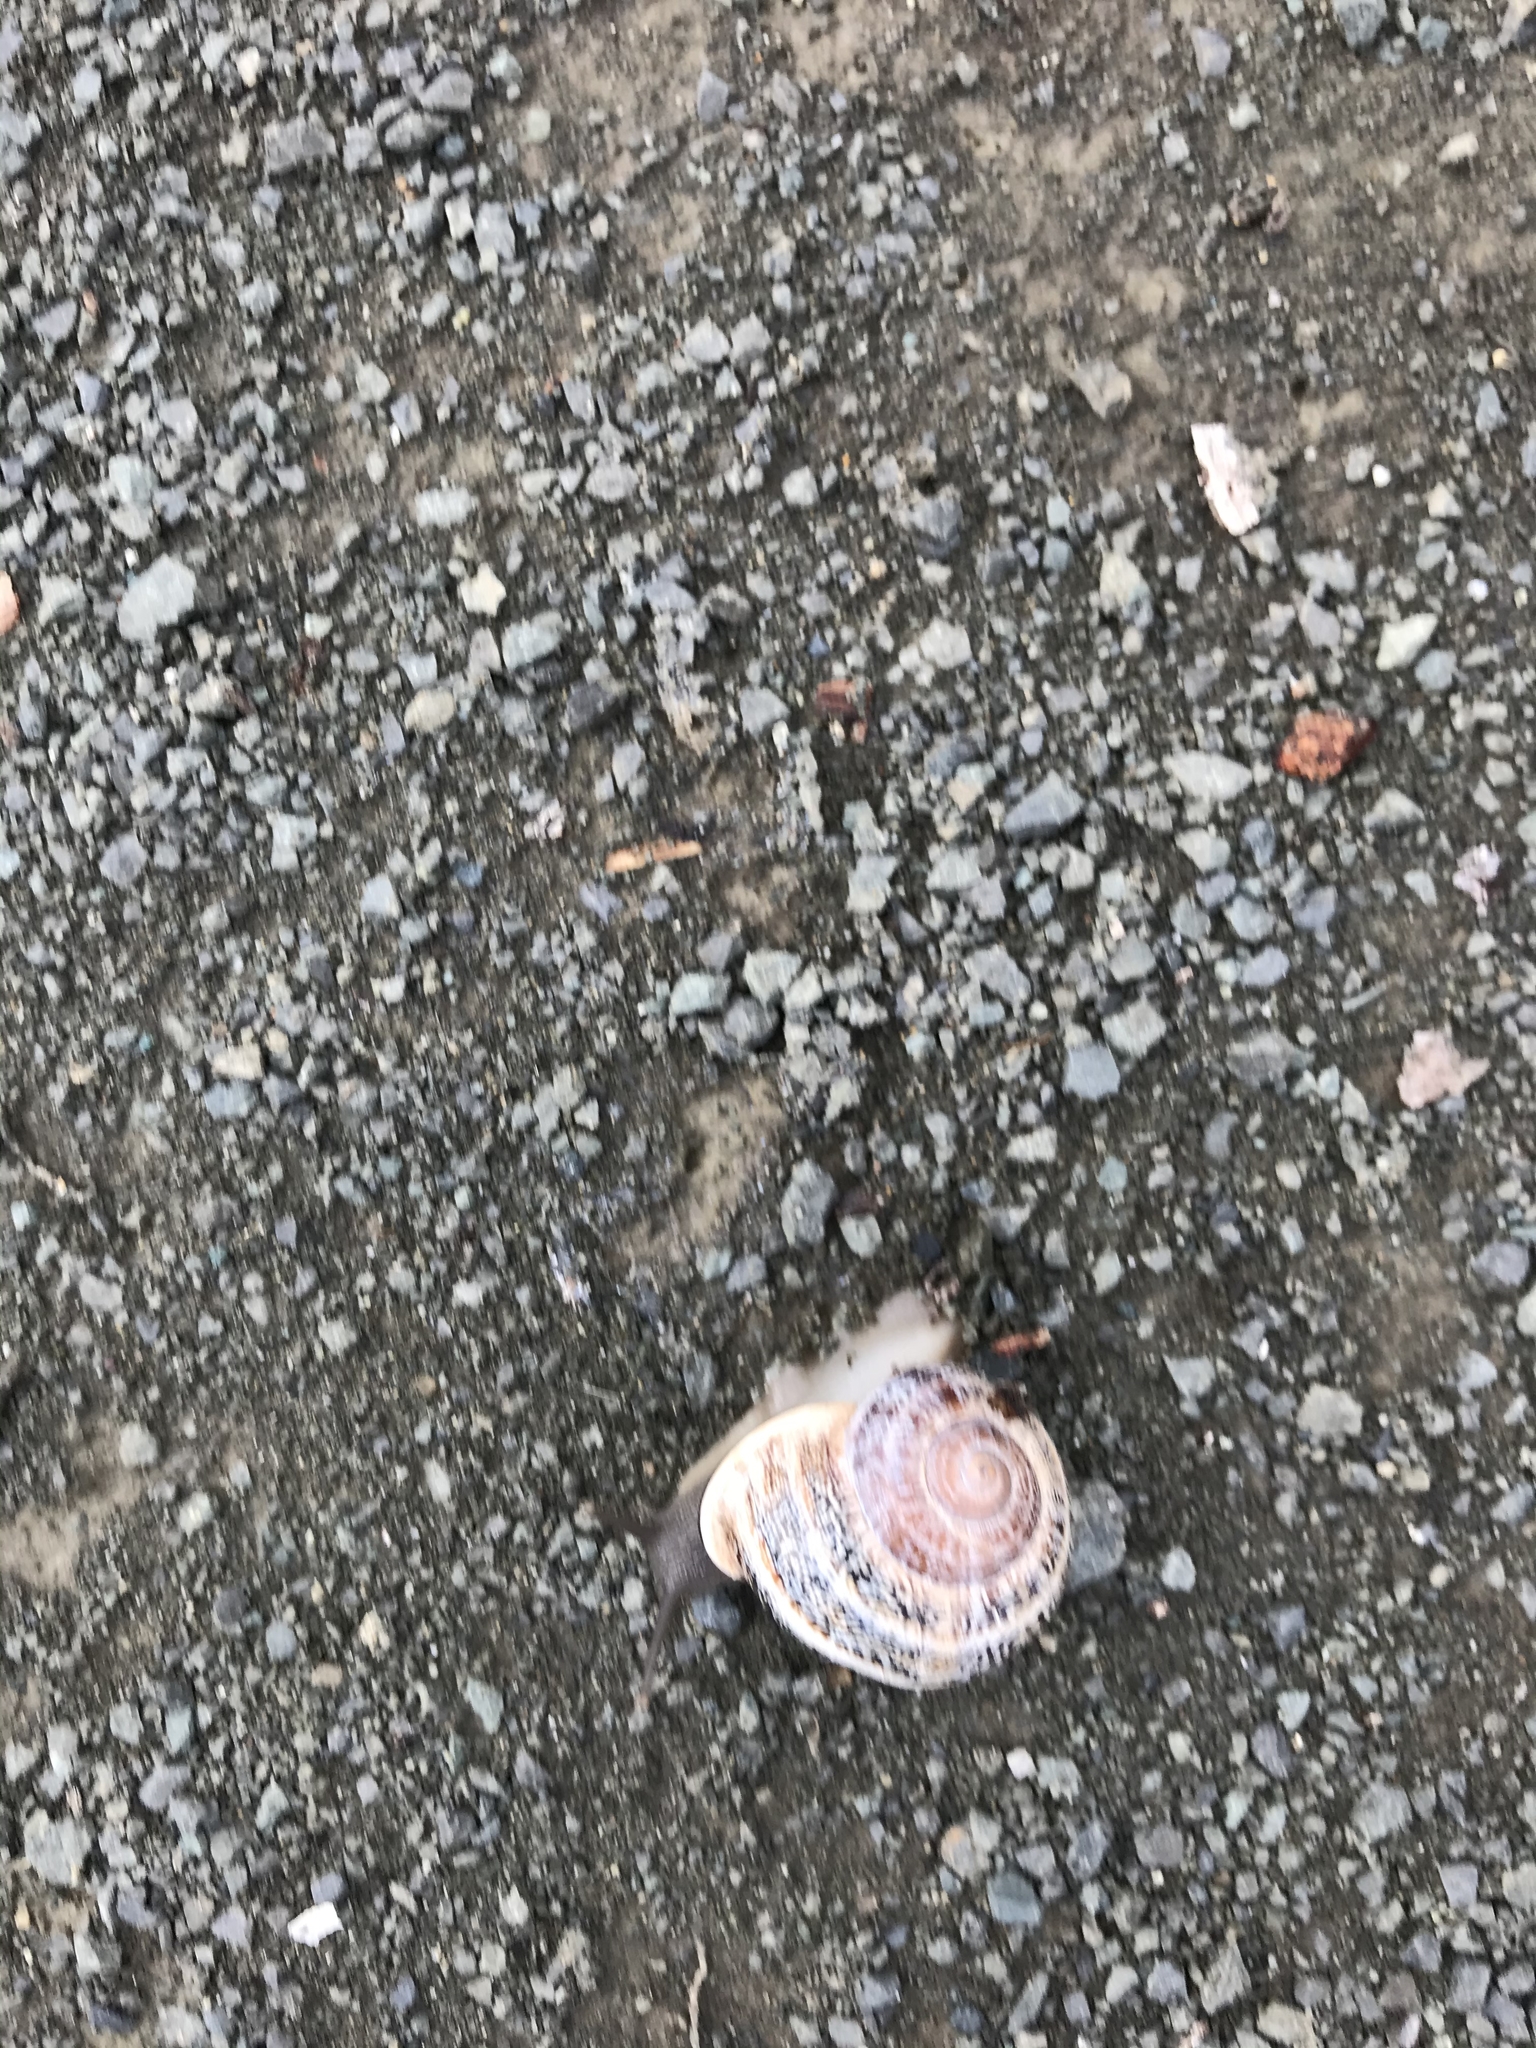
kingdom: Animalia
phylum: Mollusca
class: Gastropoda
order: Stylommatophora
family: Helicidae
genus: Otala
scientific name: Otala lactea
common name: Milk snail
